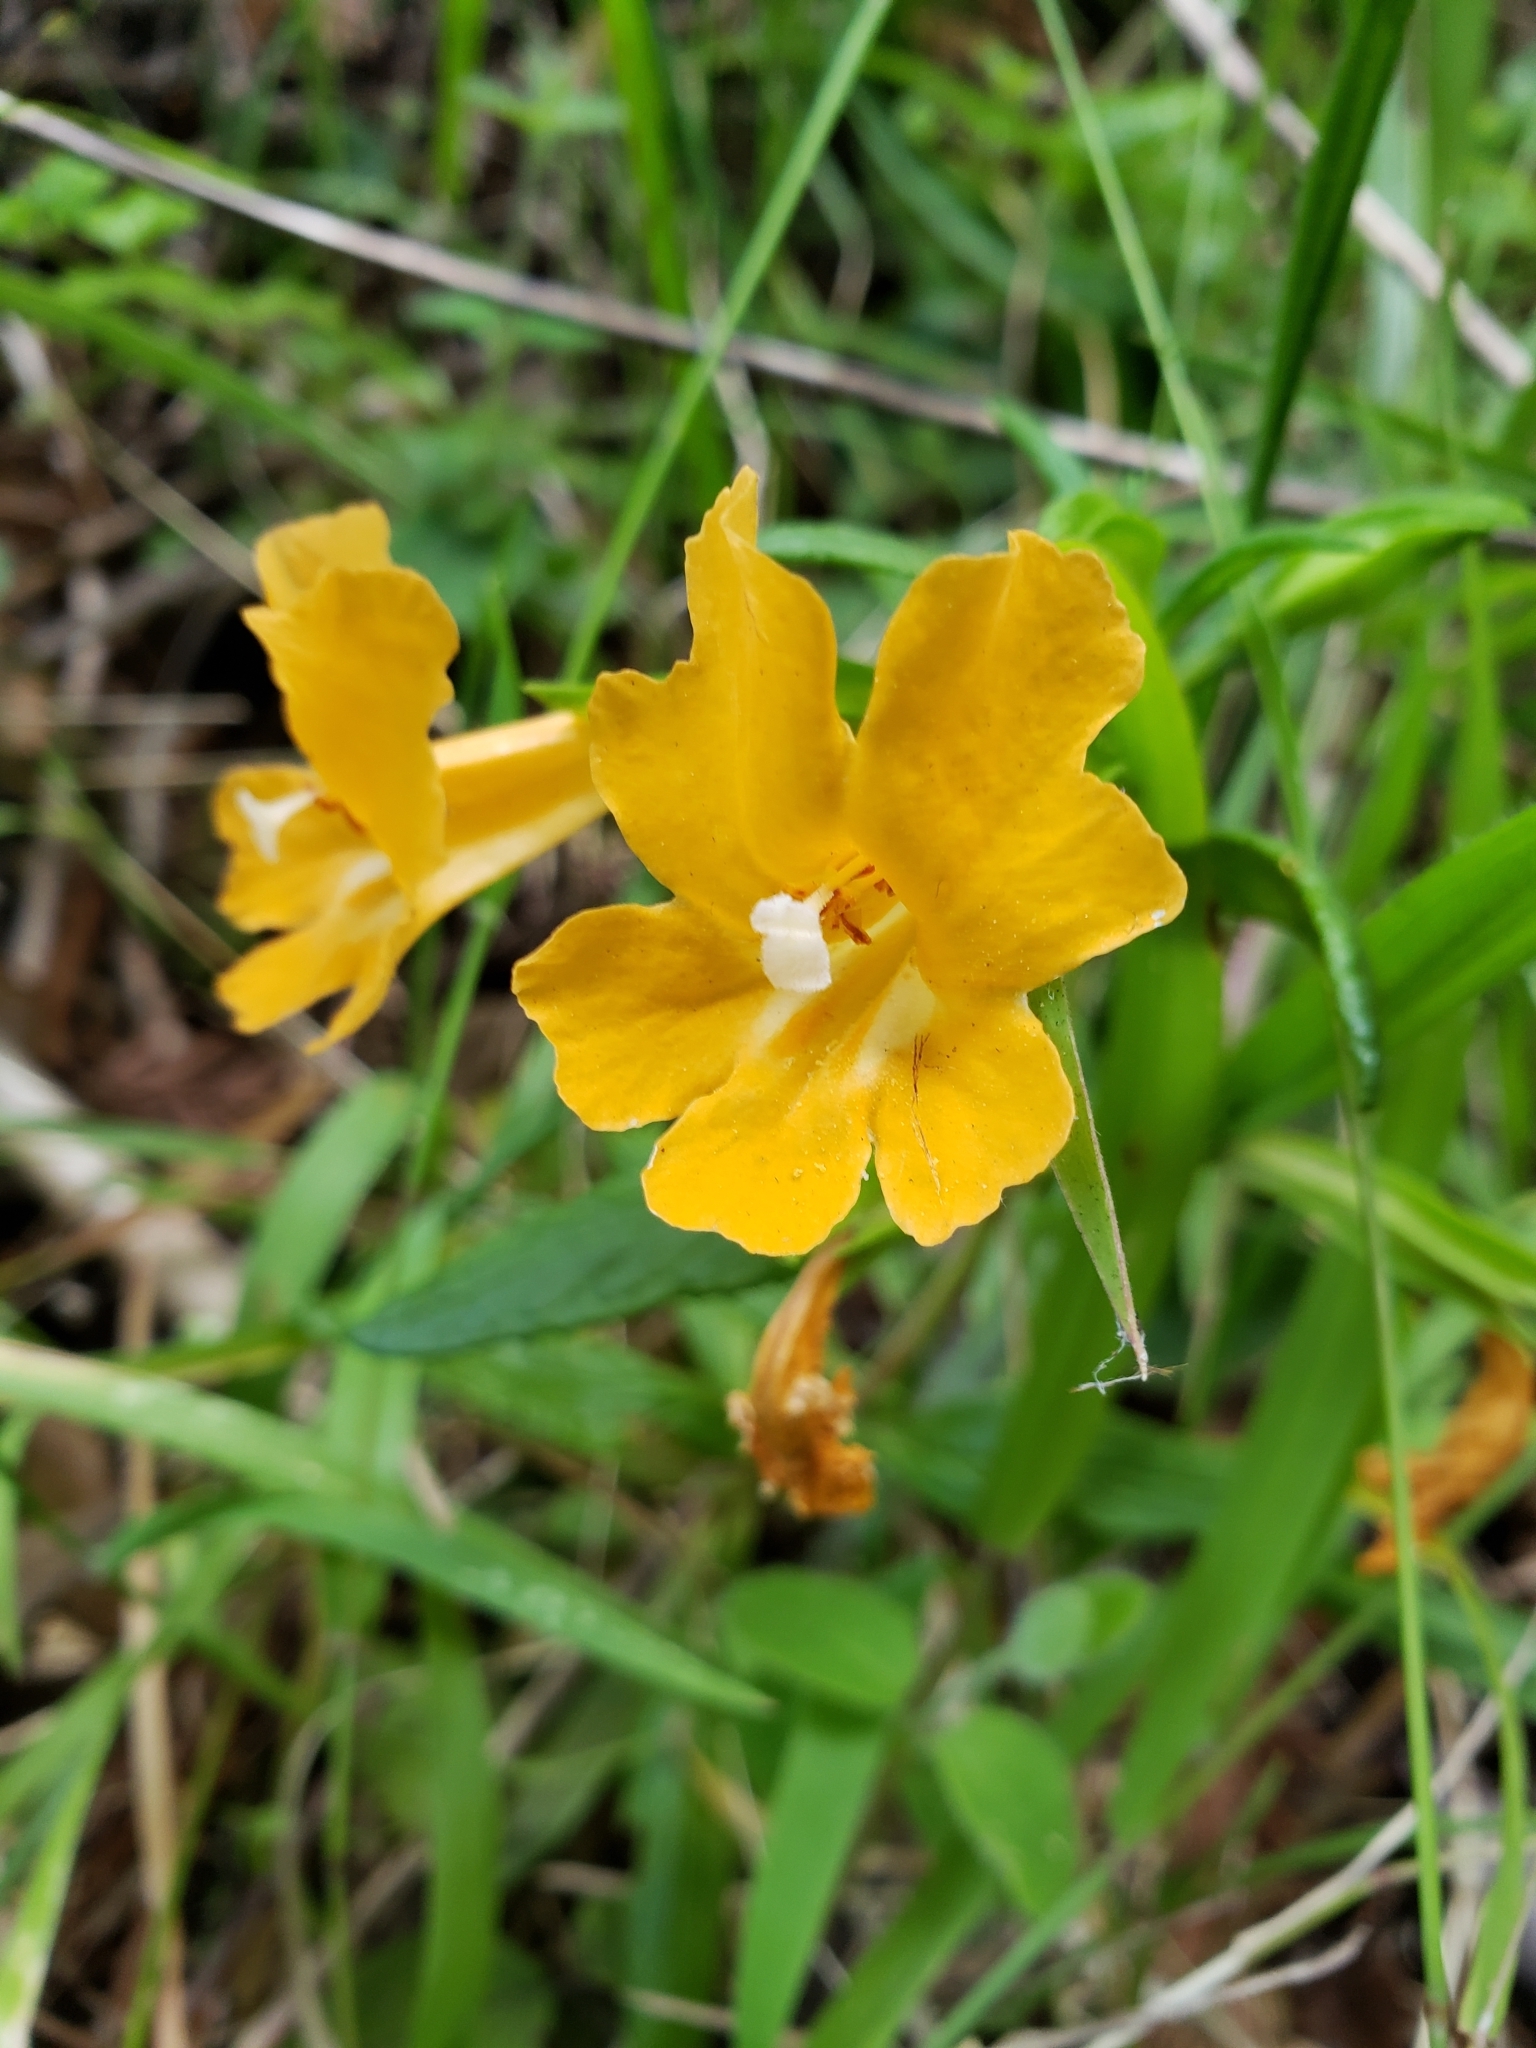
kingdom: Plantae
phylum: Tracheophyta
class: Magnoliopsida
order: Lamiales
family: Phrymaceae
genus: Diplacus
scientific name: Diplacus aurantiacus
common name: Bush monkey-flower
